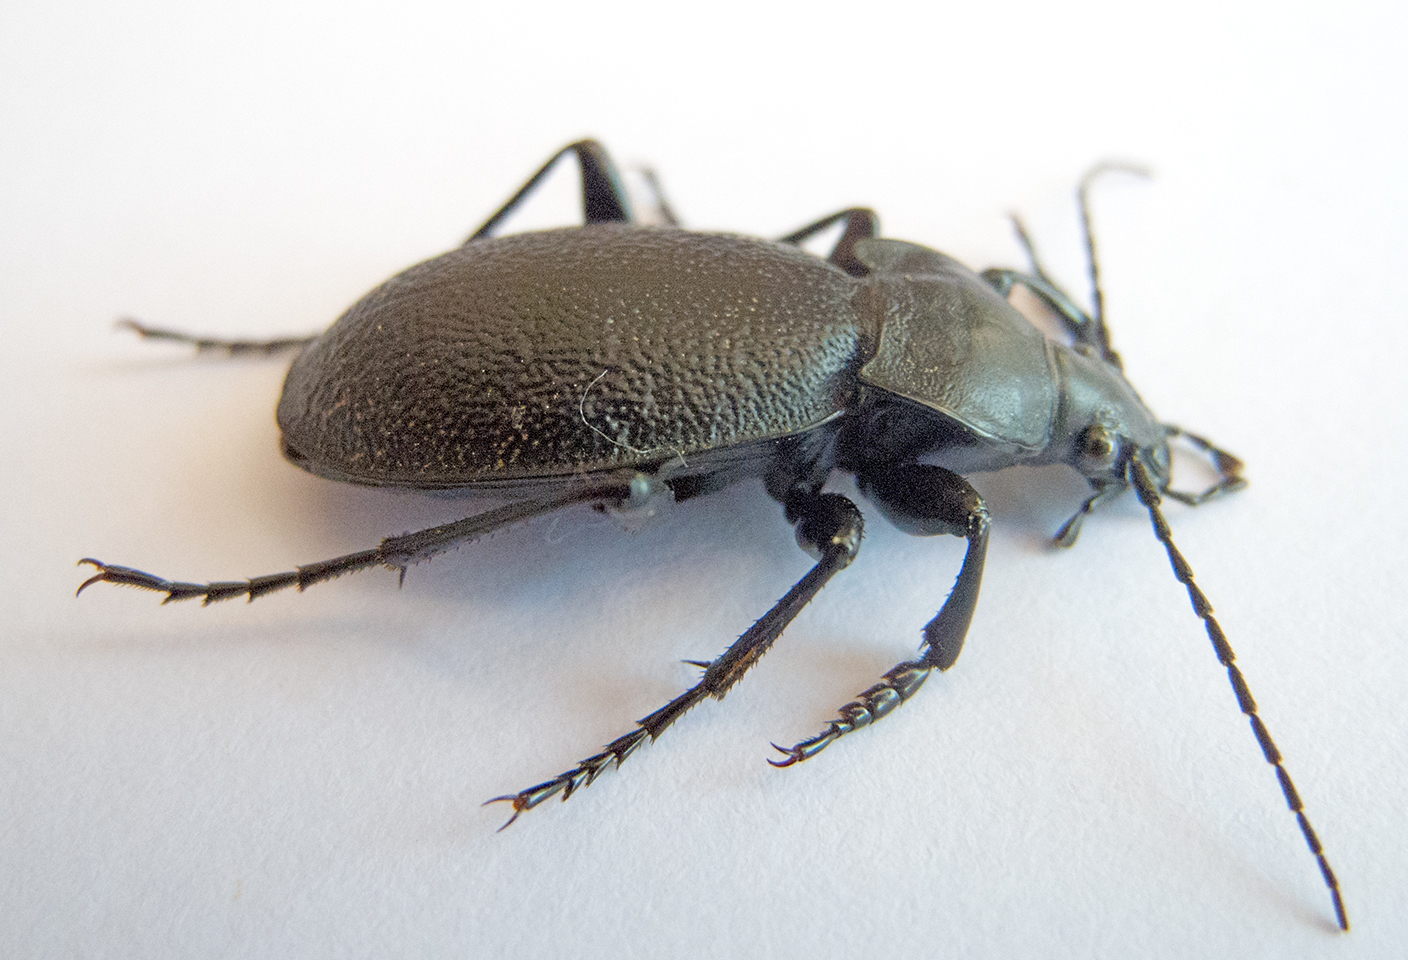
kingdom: Animalia
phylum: Arthropoda
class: Insecta
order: Coleoptera
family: Carabidae
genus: Carabus
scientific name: Carabus coriaceus
